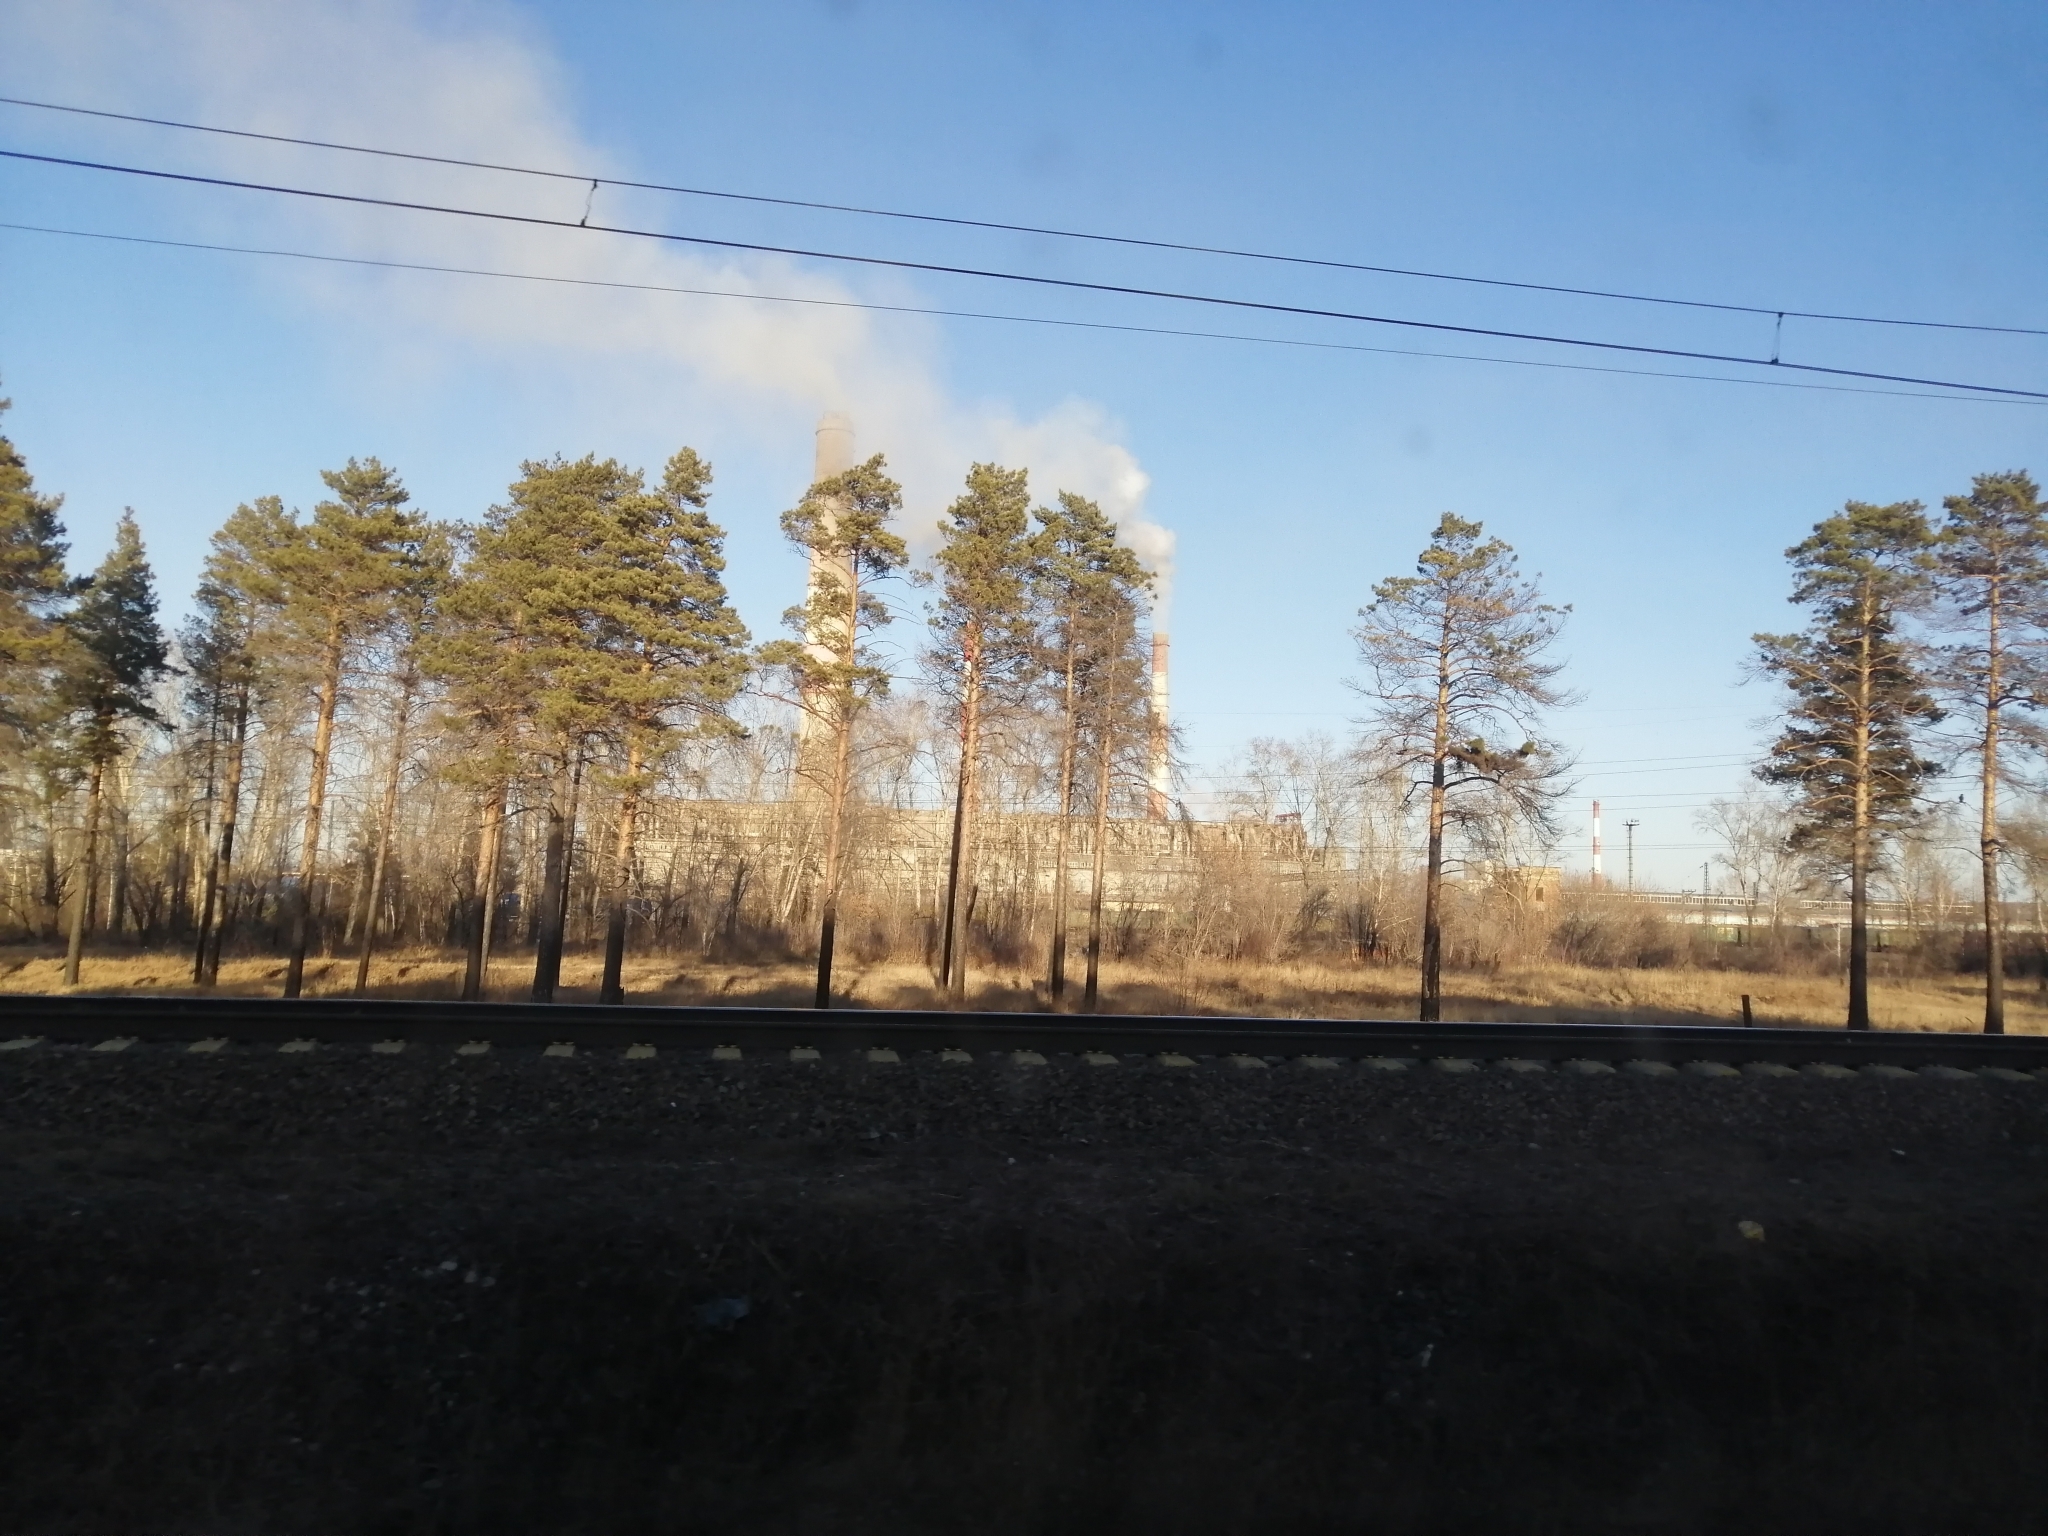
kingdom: Plantae
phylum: Tracheophyta
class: Pinopsida
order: Pinales
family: Pinaceae
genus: Pinus
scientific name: Pinus sylvestris
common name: Scots pine
